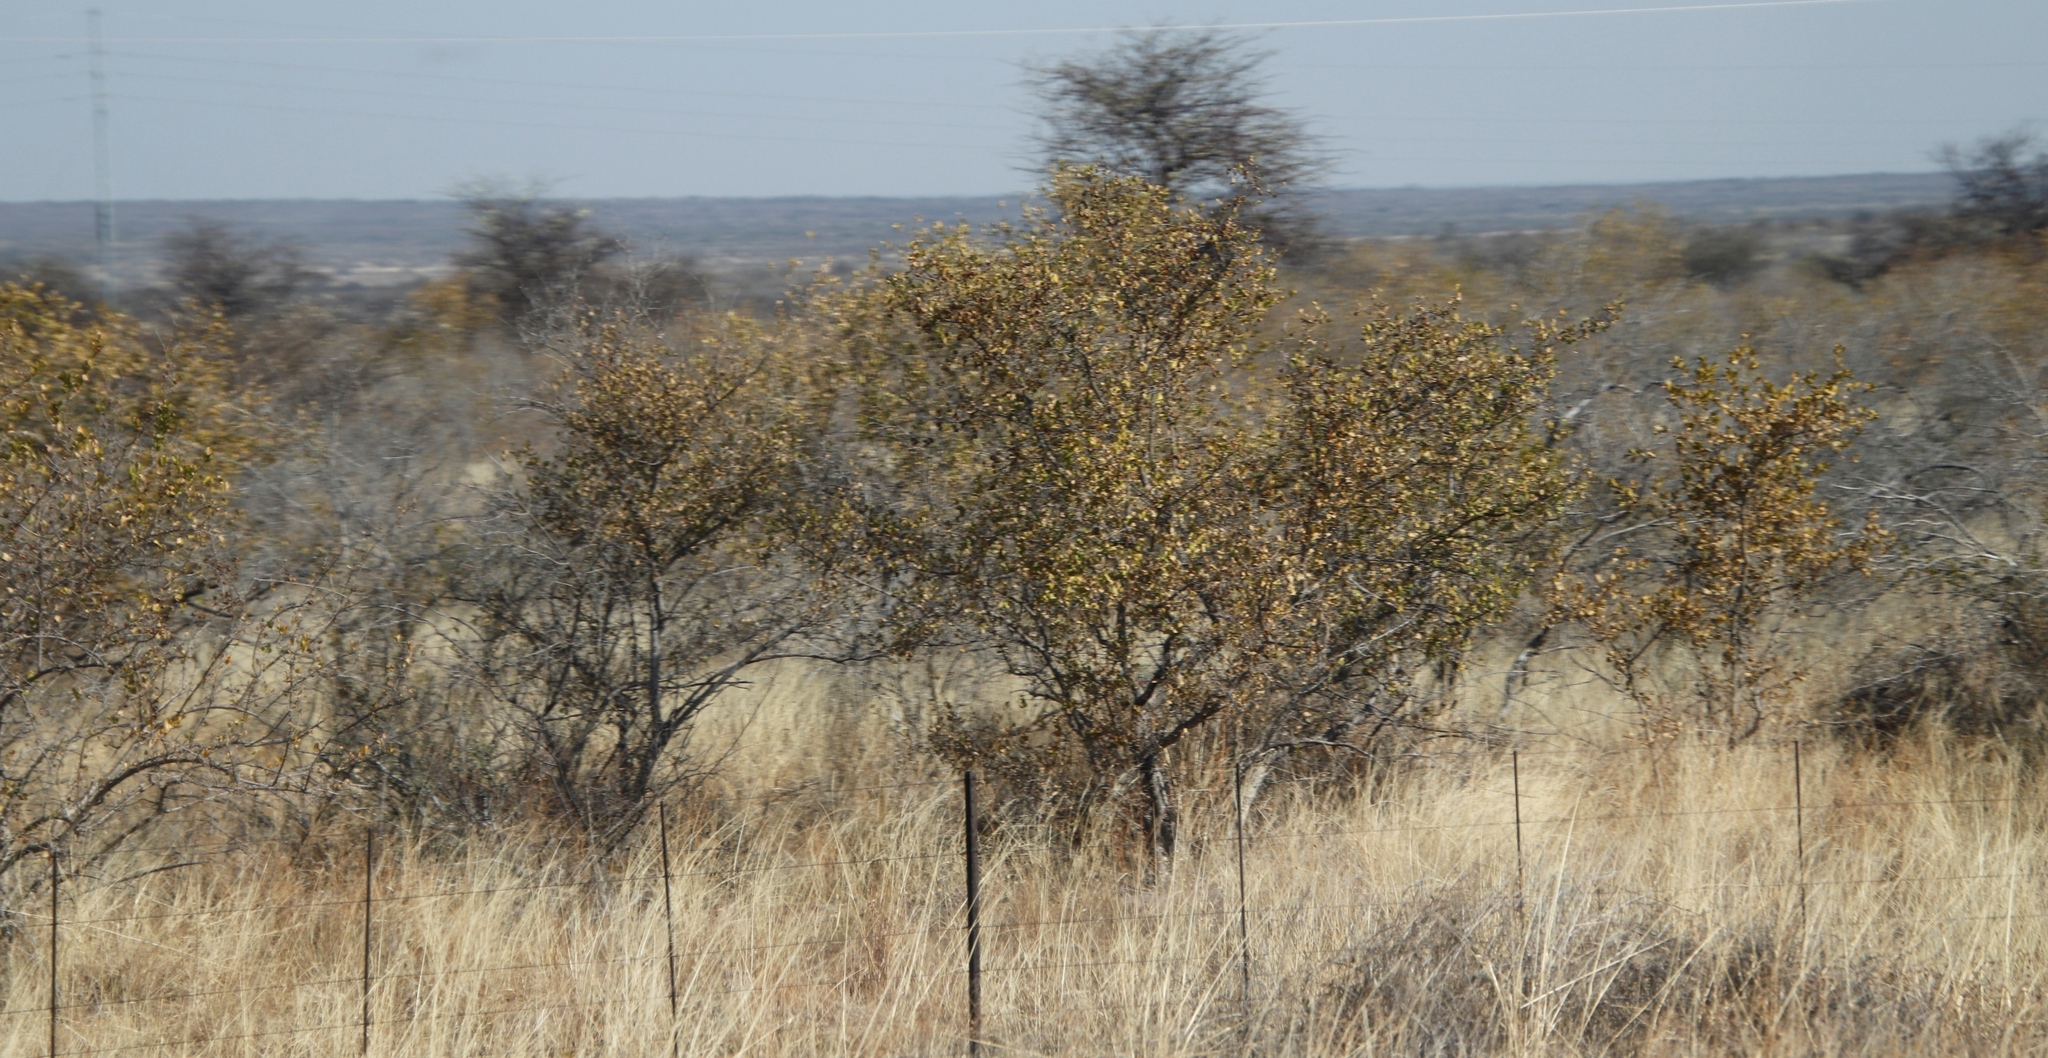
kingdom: Plantae
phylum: Tracheophyta
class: Magnoliopsida
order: Myrtales
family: Combretaceae
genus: Combretum
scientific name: Combretum apiculatum
